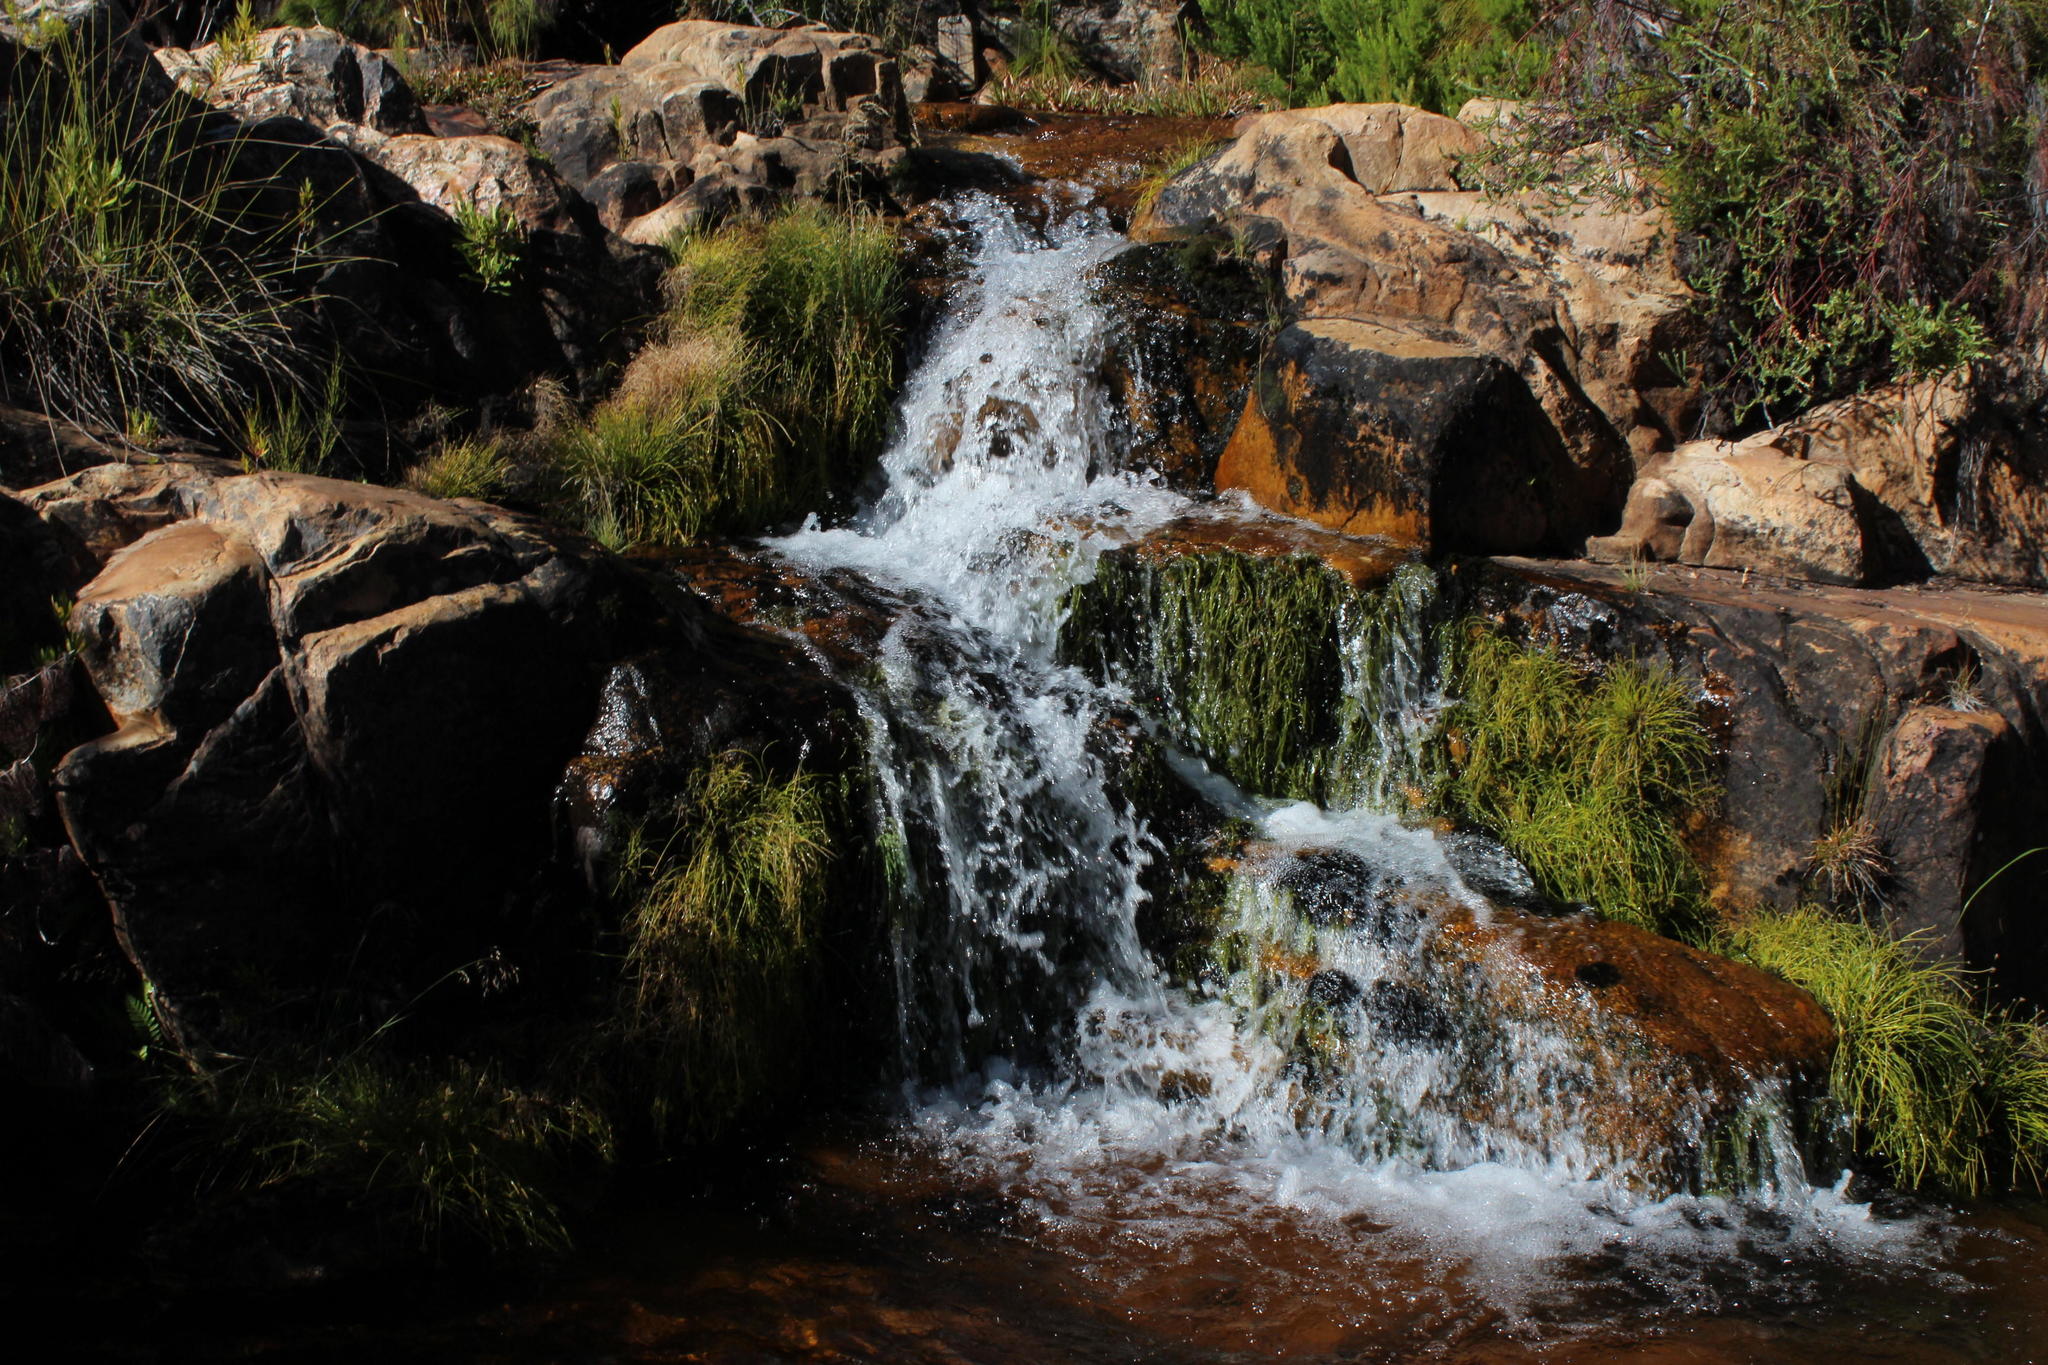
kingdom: Plantae
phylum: Tracheophyta
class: Liliopsida
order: Poales
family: Cyperaceae
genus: Isolepis
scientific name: Isolepis digitata
